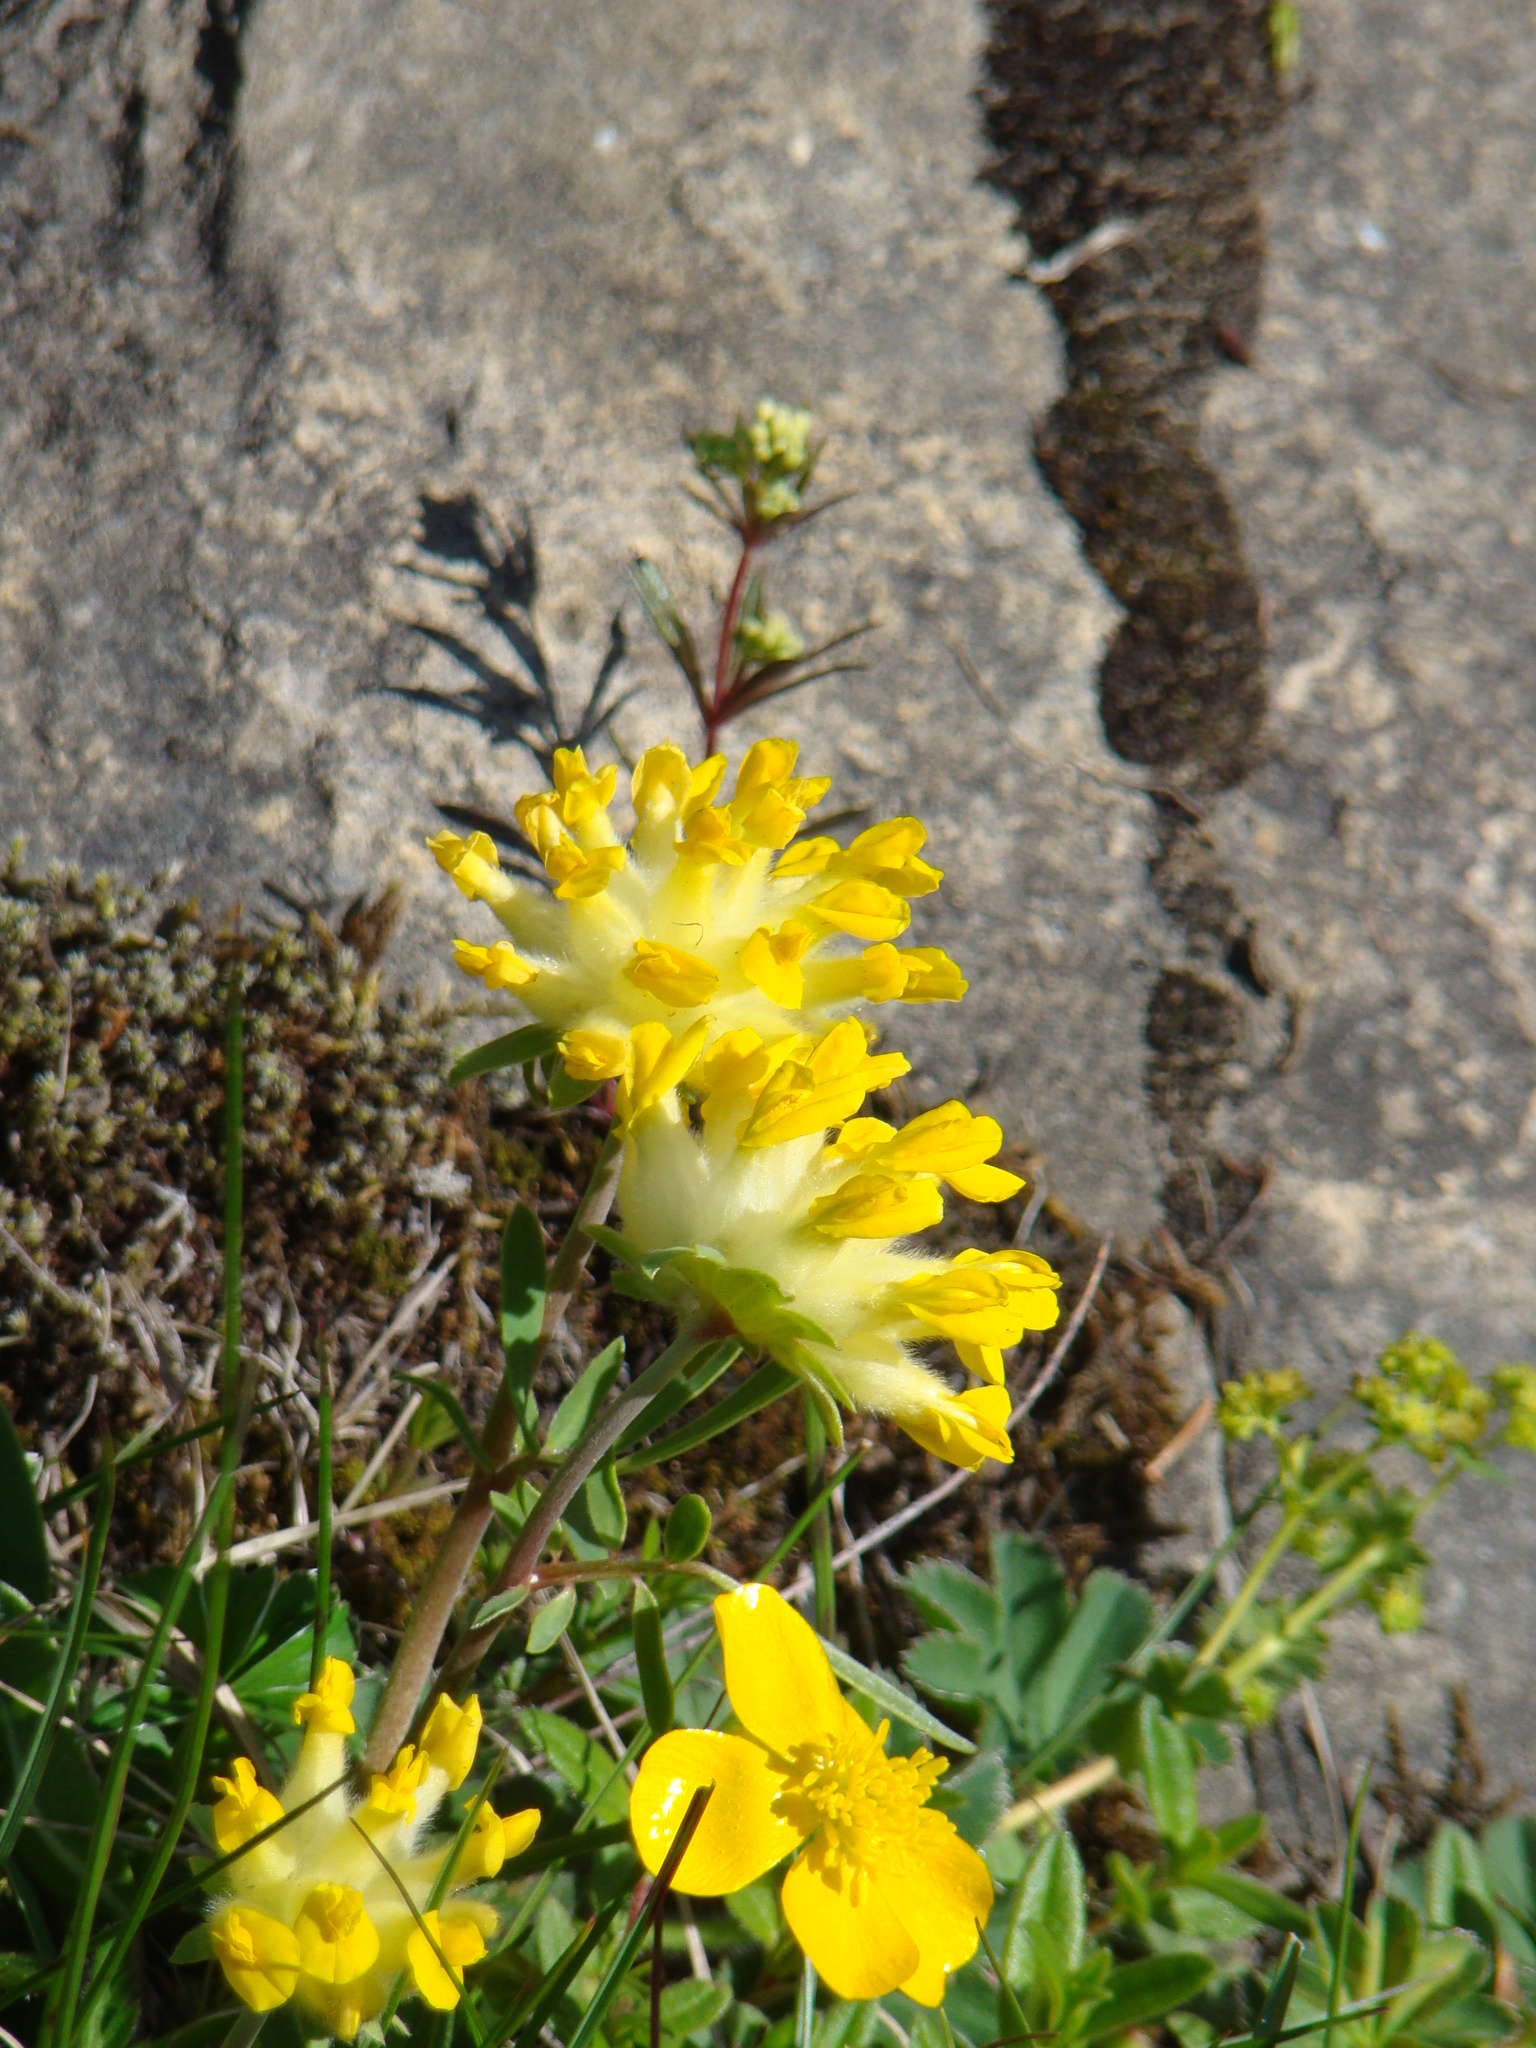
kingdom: Plantae
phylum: Tracheophyta
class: Magnoliopsida
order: Fabales
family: Fabaceae
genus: Anthyllis
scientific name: Anthyllis vulneraria
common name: Kidney vetch
